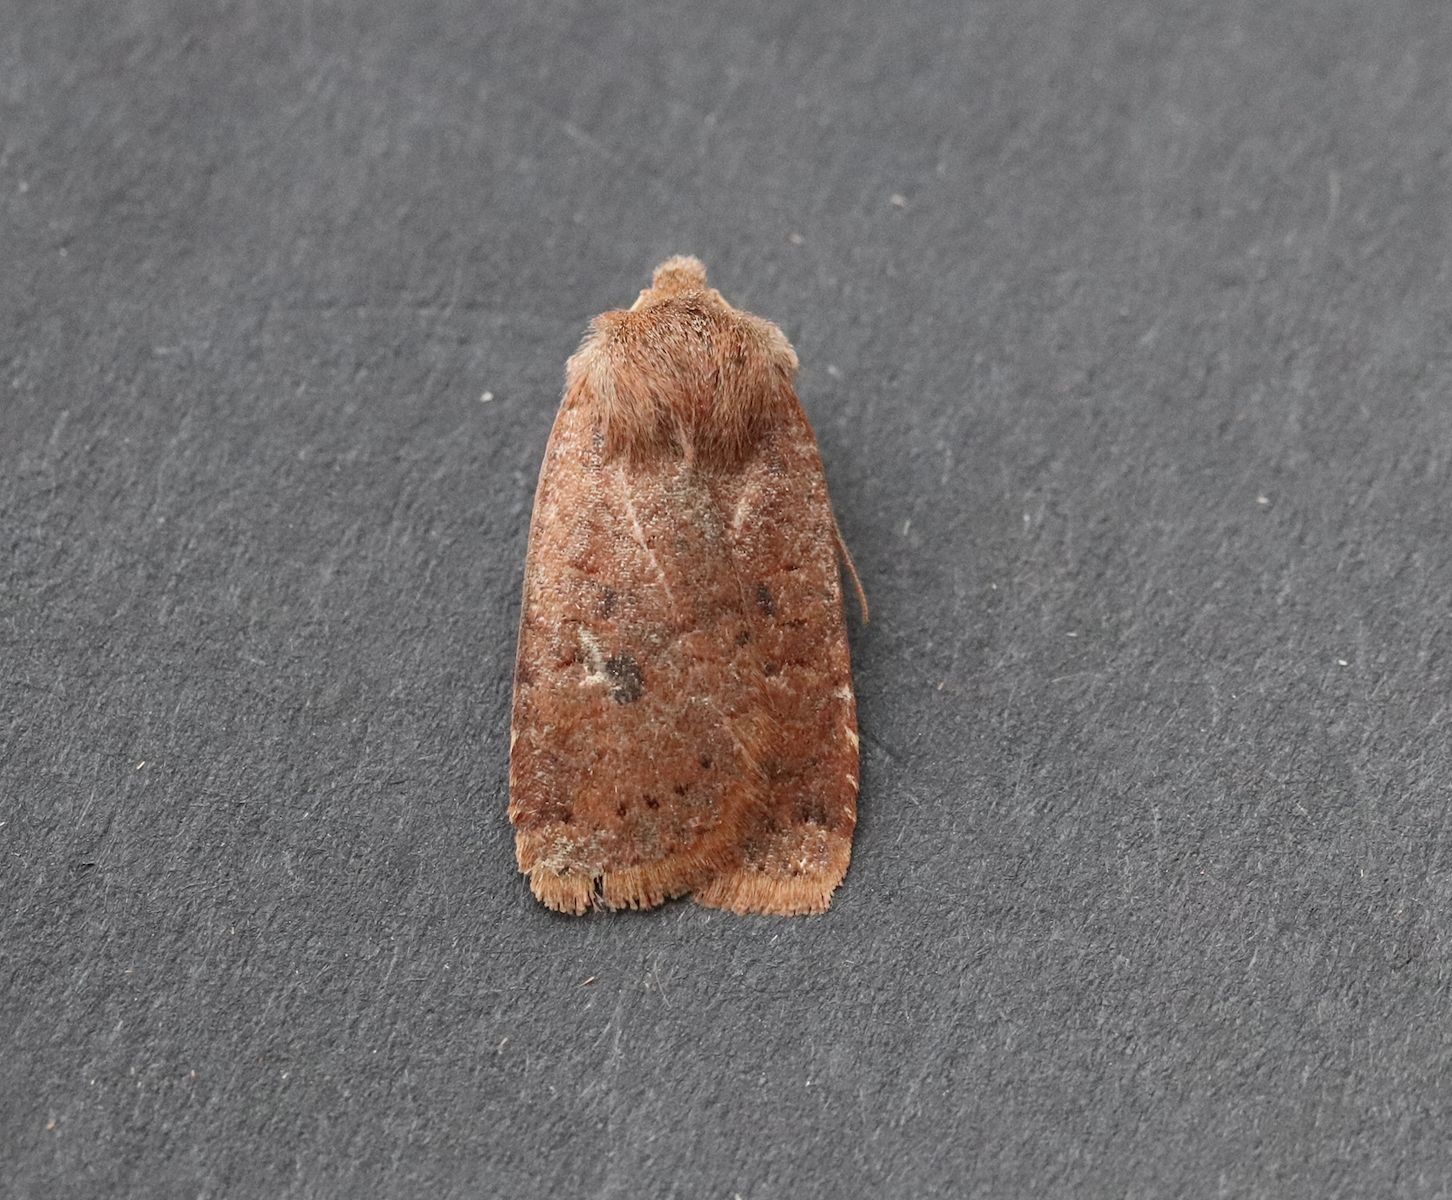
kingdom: Animalia
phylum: Arthropoda
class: Insecta
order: Lepidoptera
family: Noctuidae
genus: Conistra
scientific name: Conistra vaccinii
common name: Chestnut
